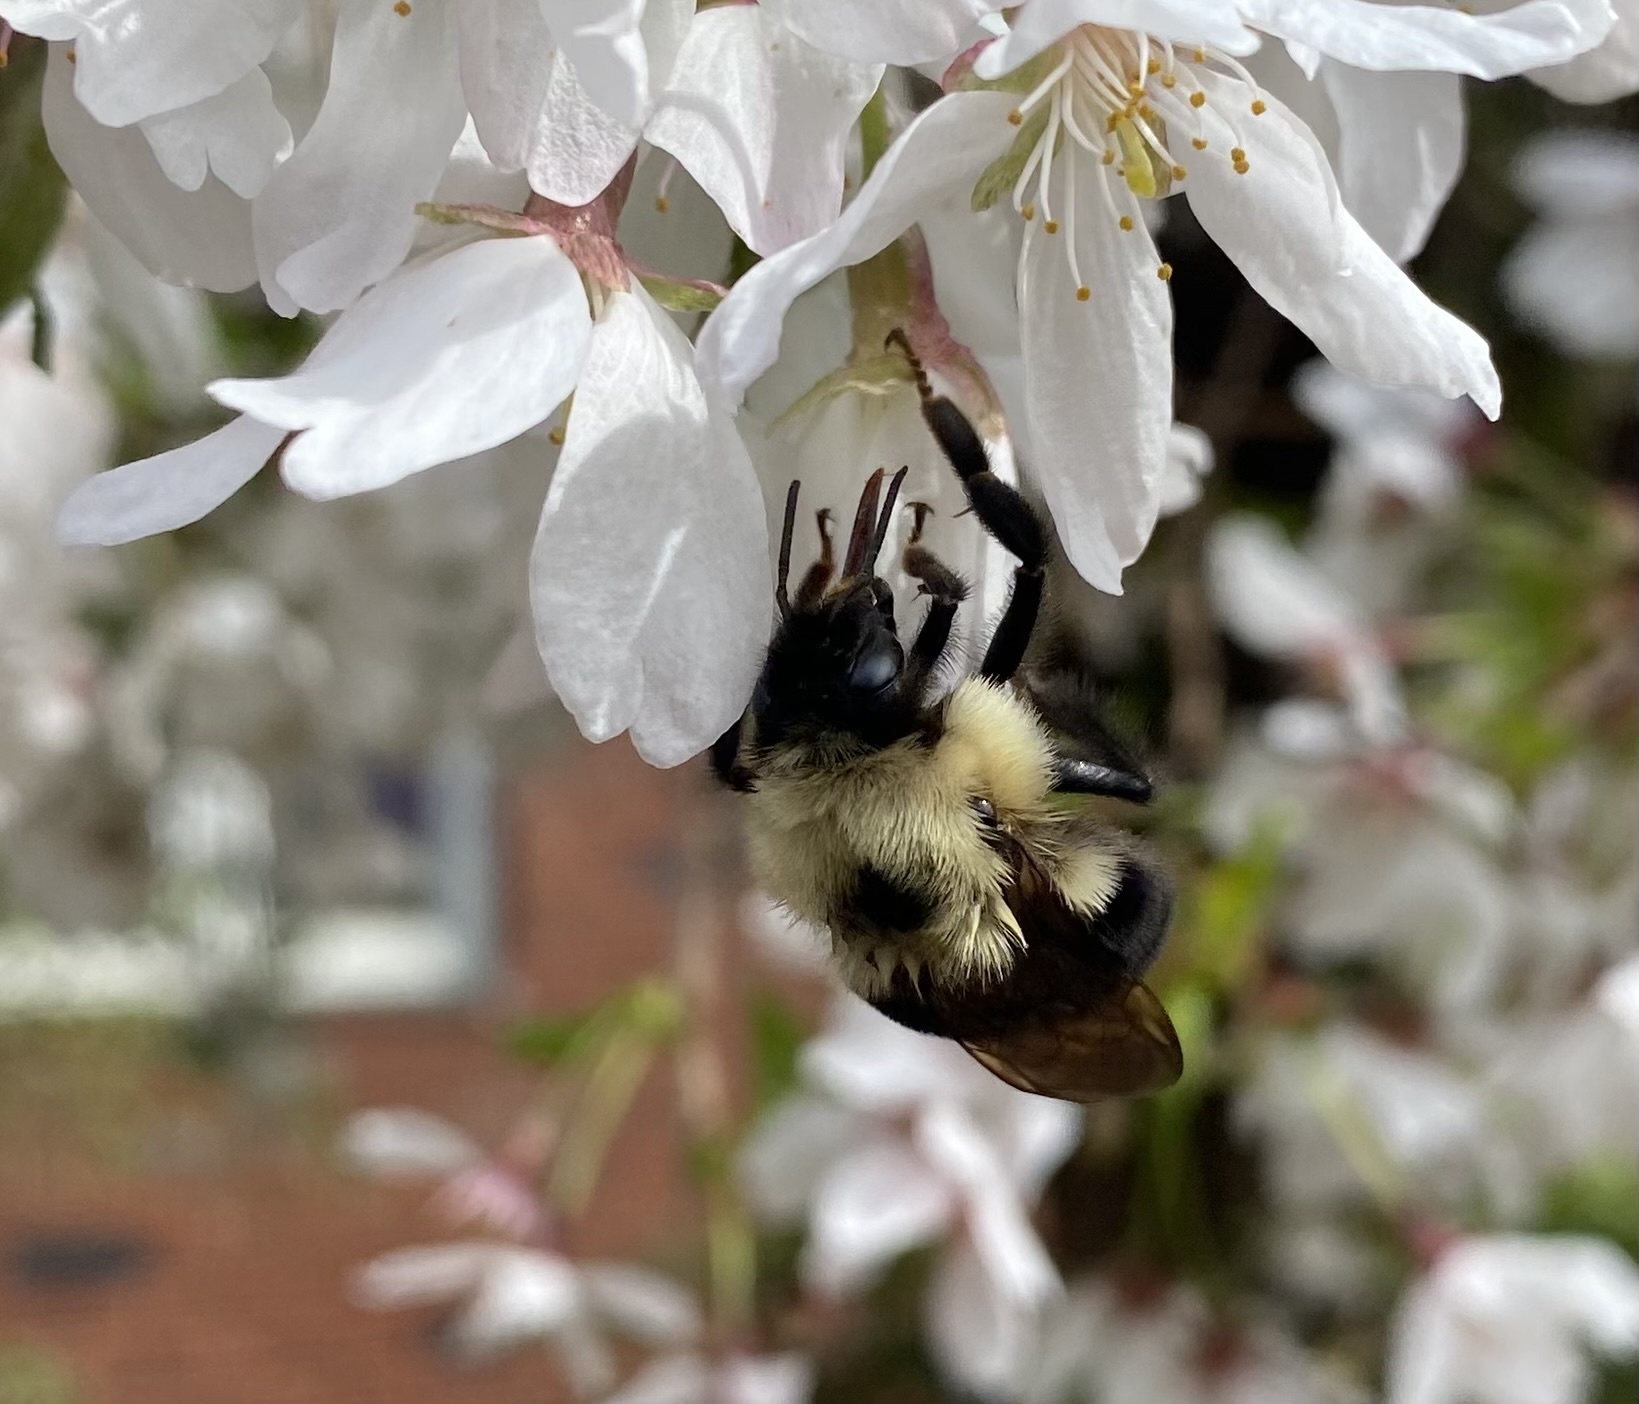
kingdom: Animalia
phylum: Arthropoda
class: Insecta
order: Hymenoptera
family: Apidae
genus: Bombus
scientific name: Bombus bimaculatus
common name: Two-spotted bumble bee
